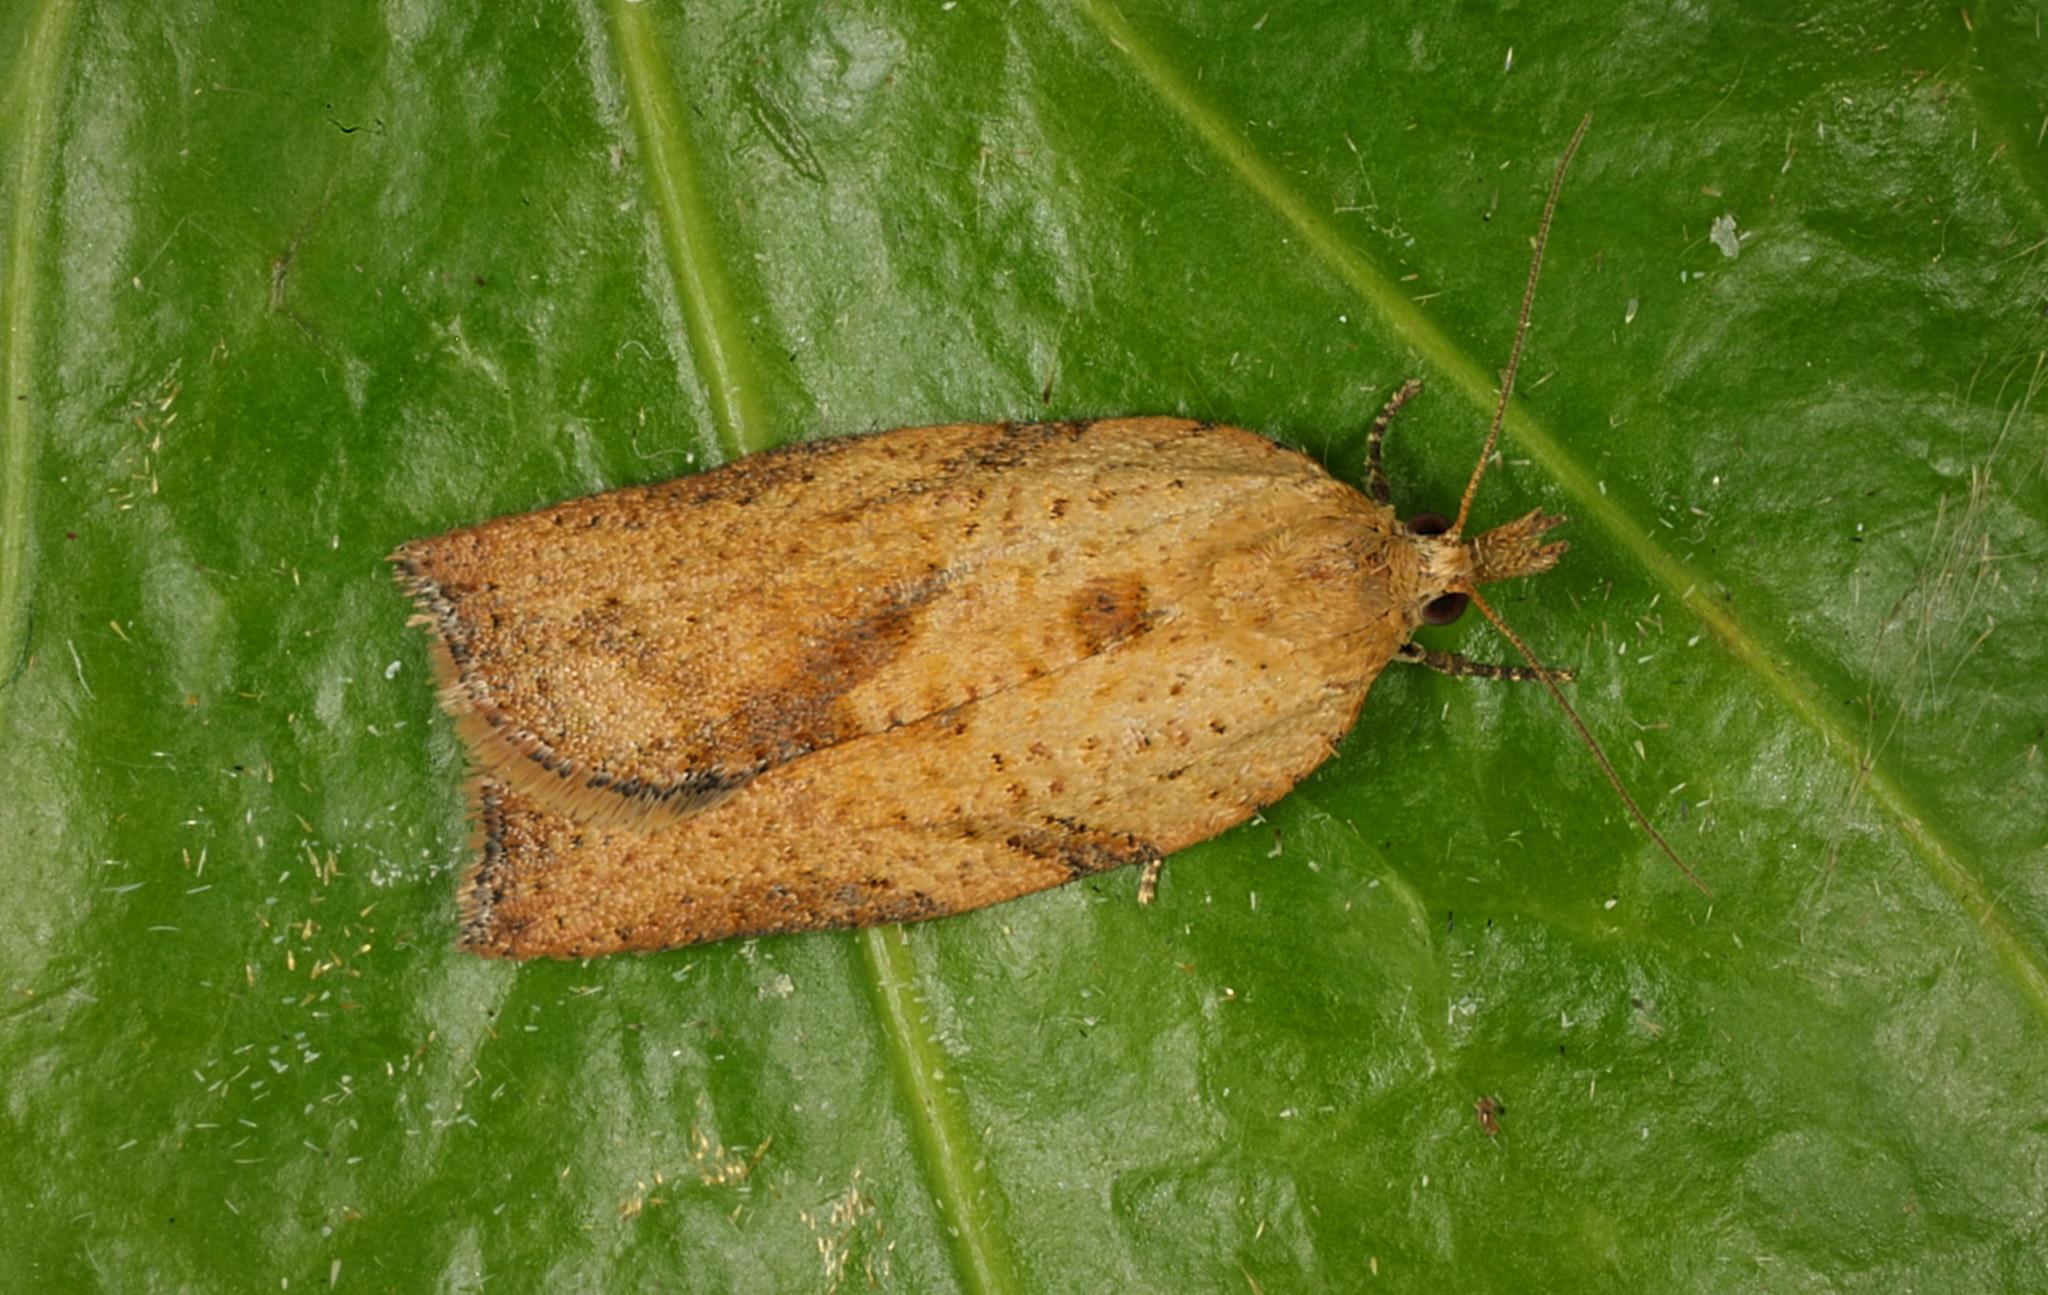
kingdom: Animalia
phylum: Arthropoda
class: Insecta
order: Lepidoptera
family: Tortricidae
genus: Epiphyas
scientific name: Epiphyas postvittana
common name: Light brown apple moth
